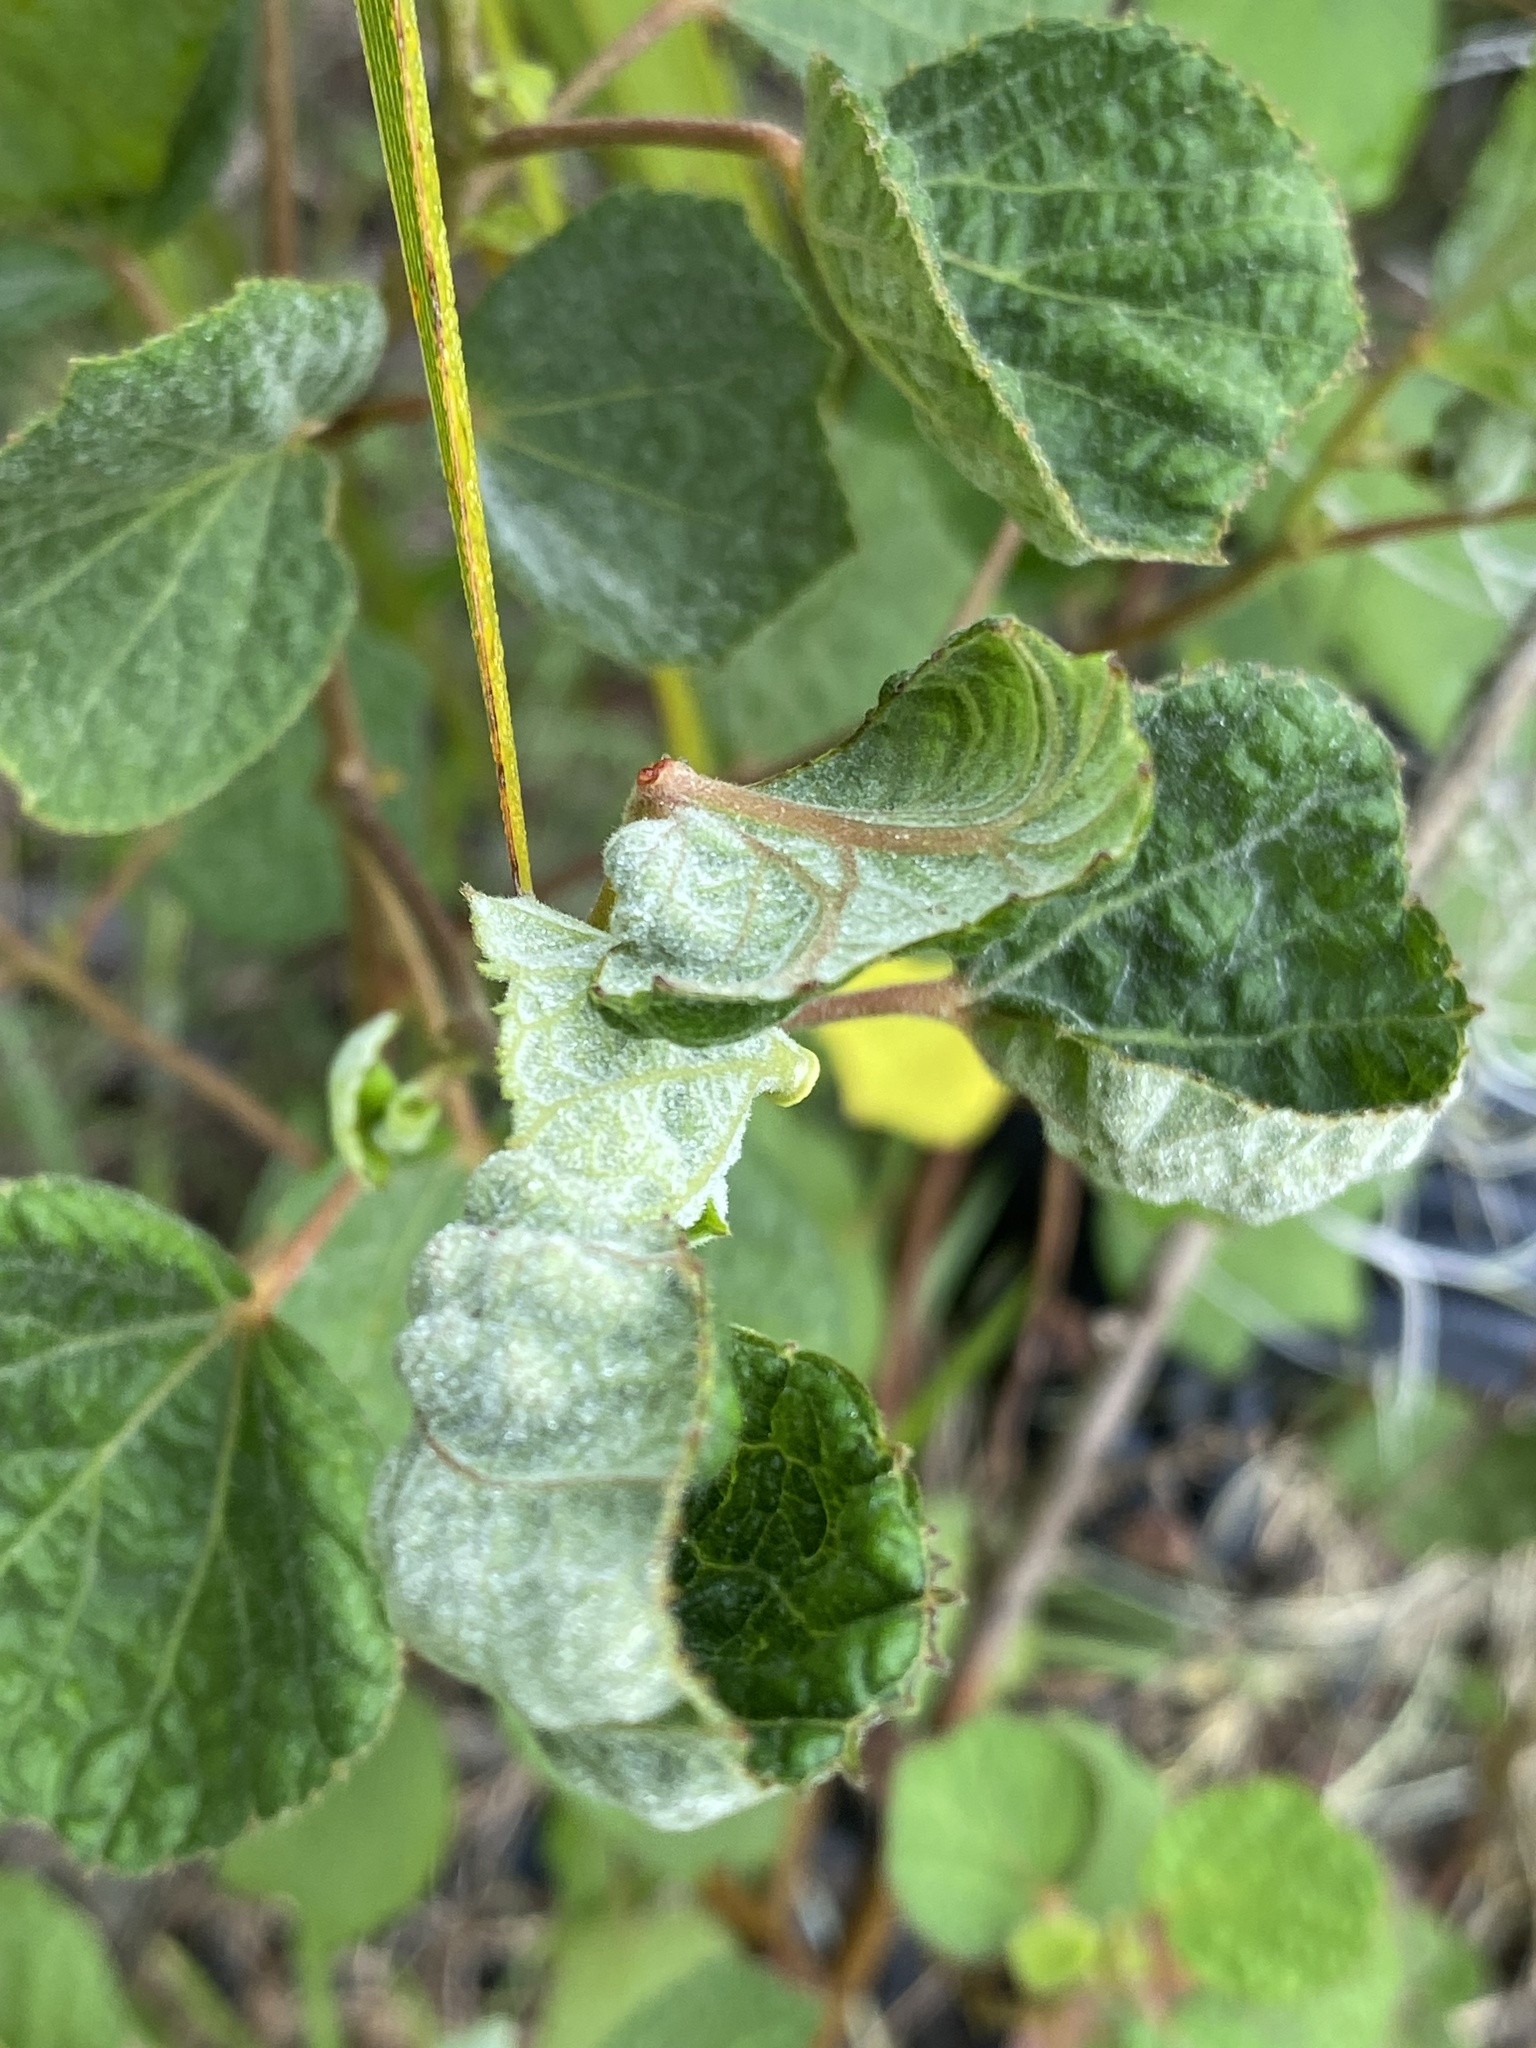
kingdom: Plantae
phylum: Tracheophyta
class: Magnoliopsida
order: Malvales
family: Malvaceae
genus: Urena
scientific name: Urena lobata
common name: Caesarweed
